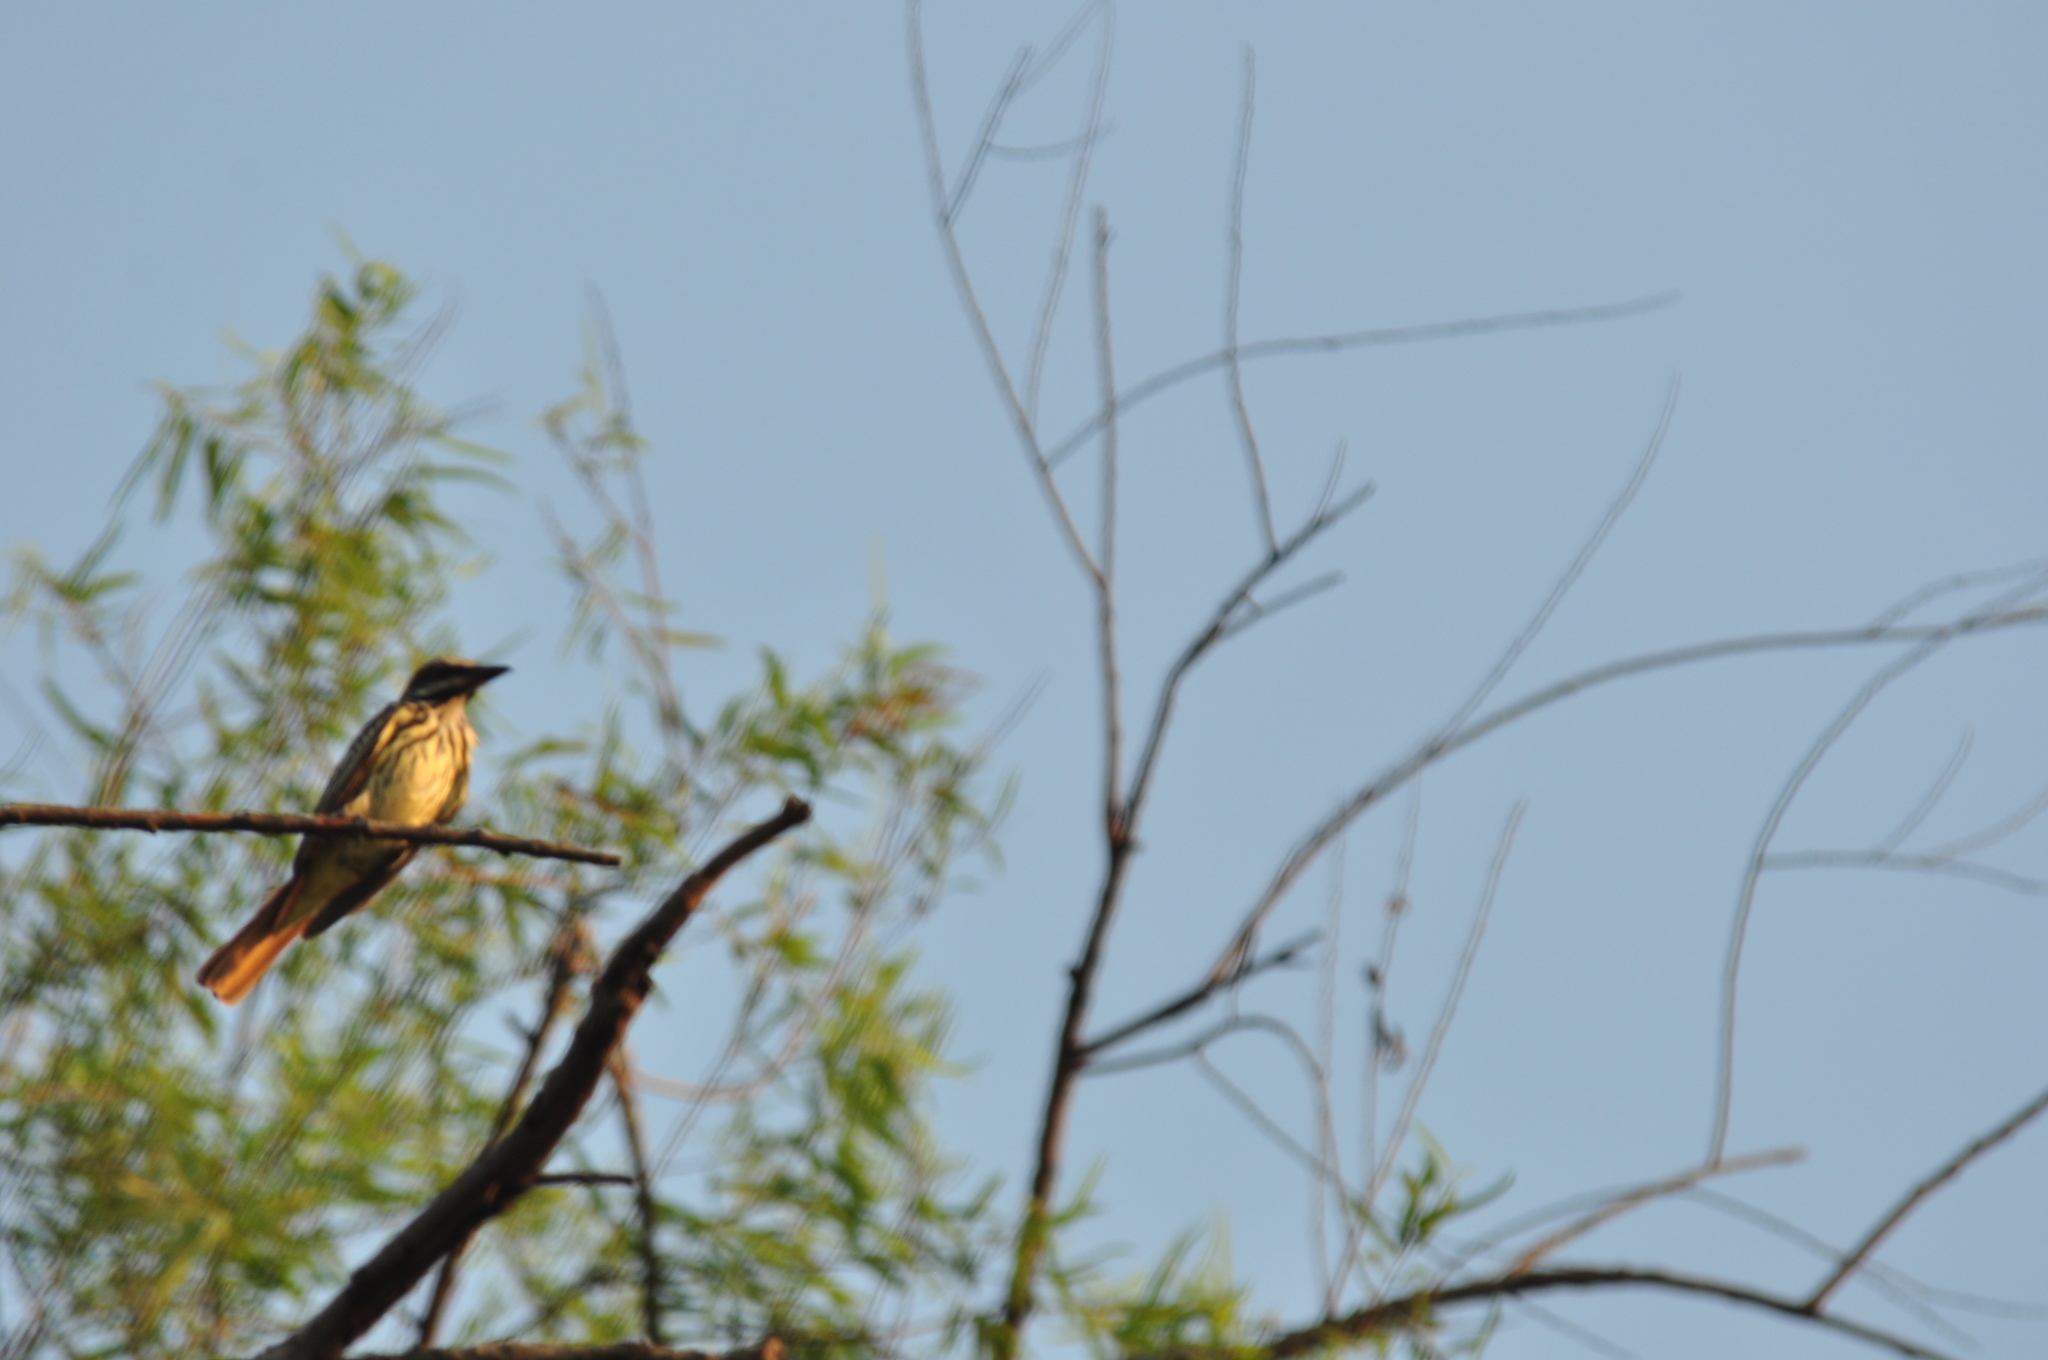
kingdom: Animalia
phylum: Chordata
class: Aves
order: Passeriformes
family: Tyrannidae
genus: Myiodynastes
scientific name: Myiodynastes luteiventris
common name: Sulphur-bellied flycatcher
